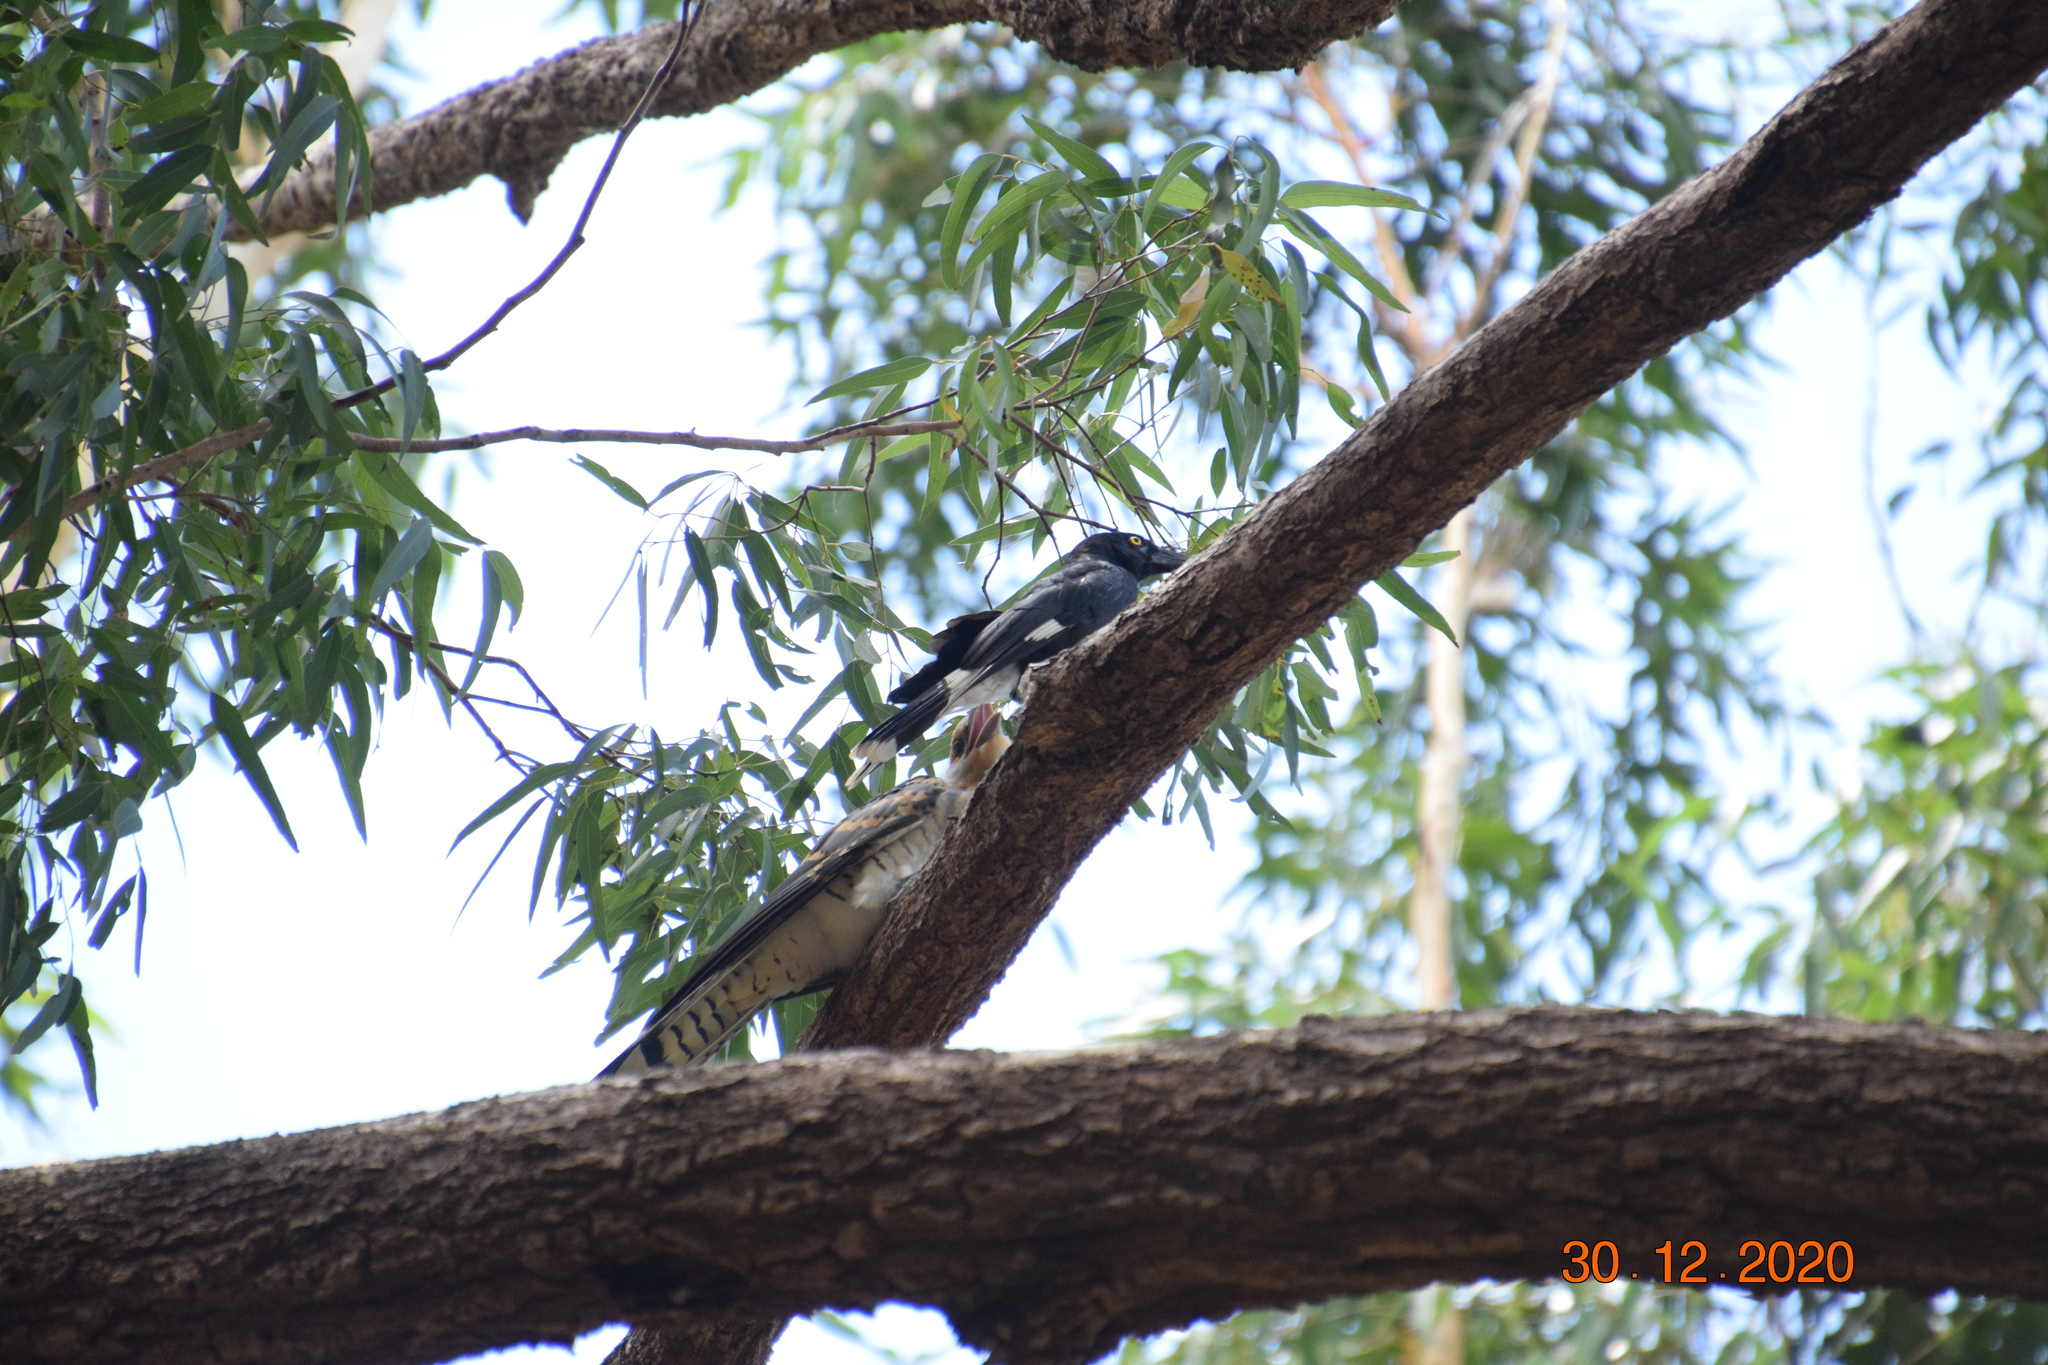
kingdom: Animalia
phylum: Chordata
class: Aves
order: Passeriformes
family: Cracticidae
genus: Strepera
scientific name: Strepera graculina
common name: Pied currawong
